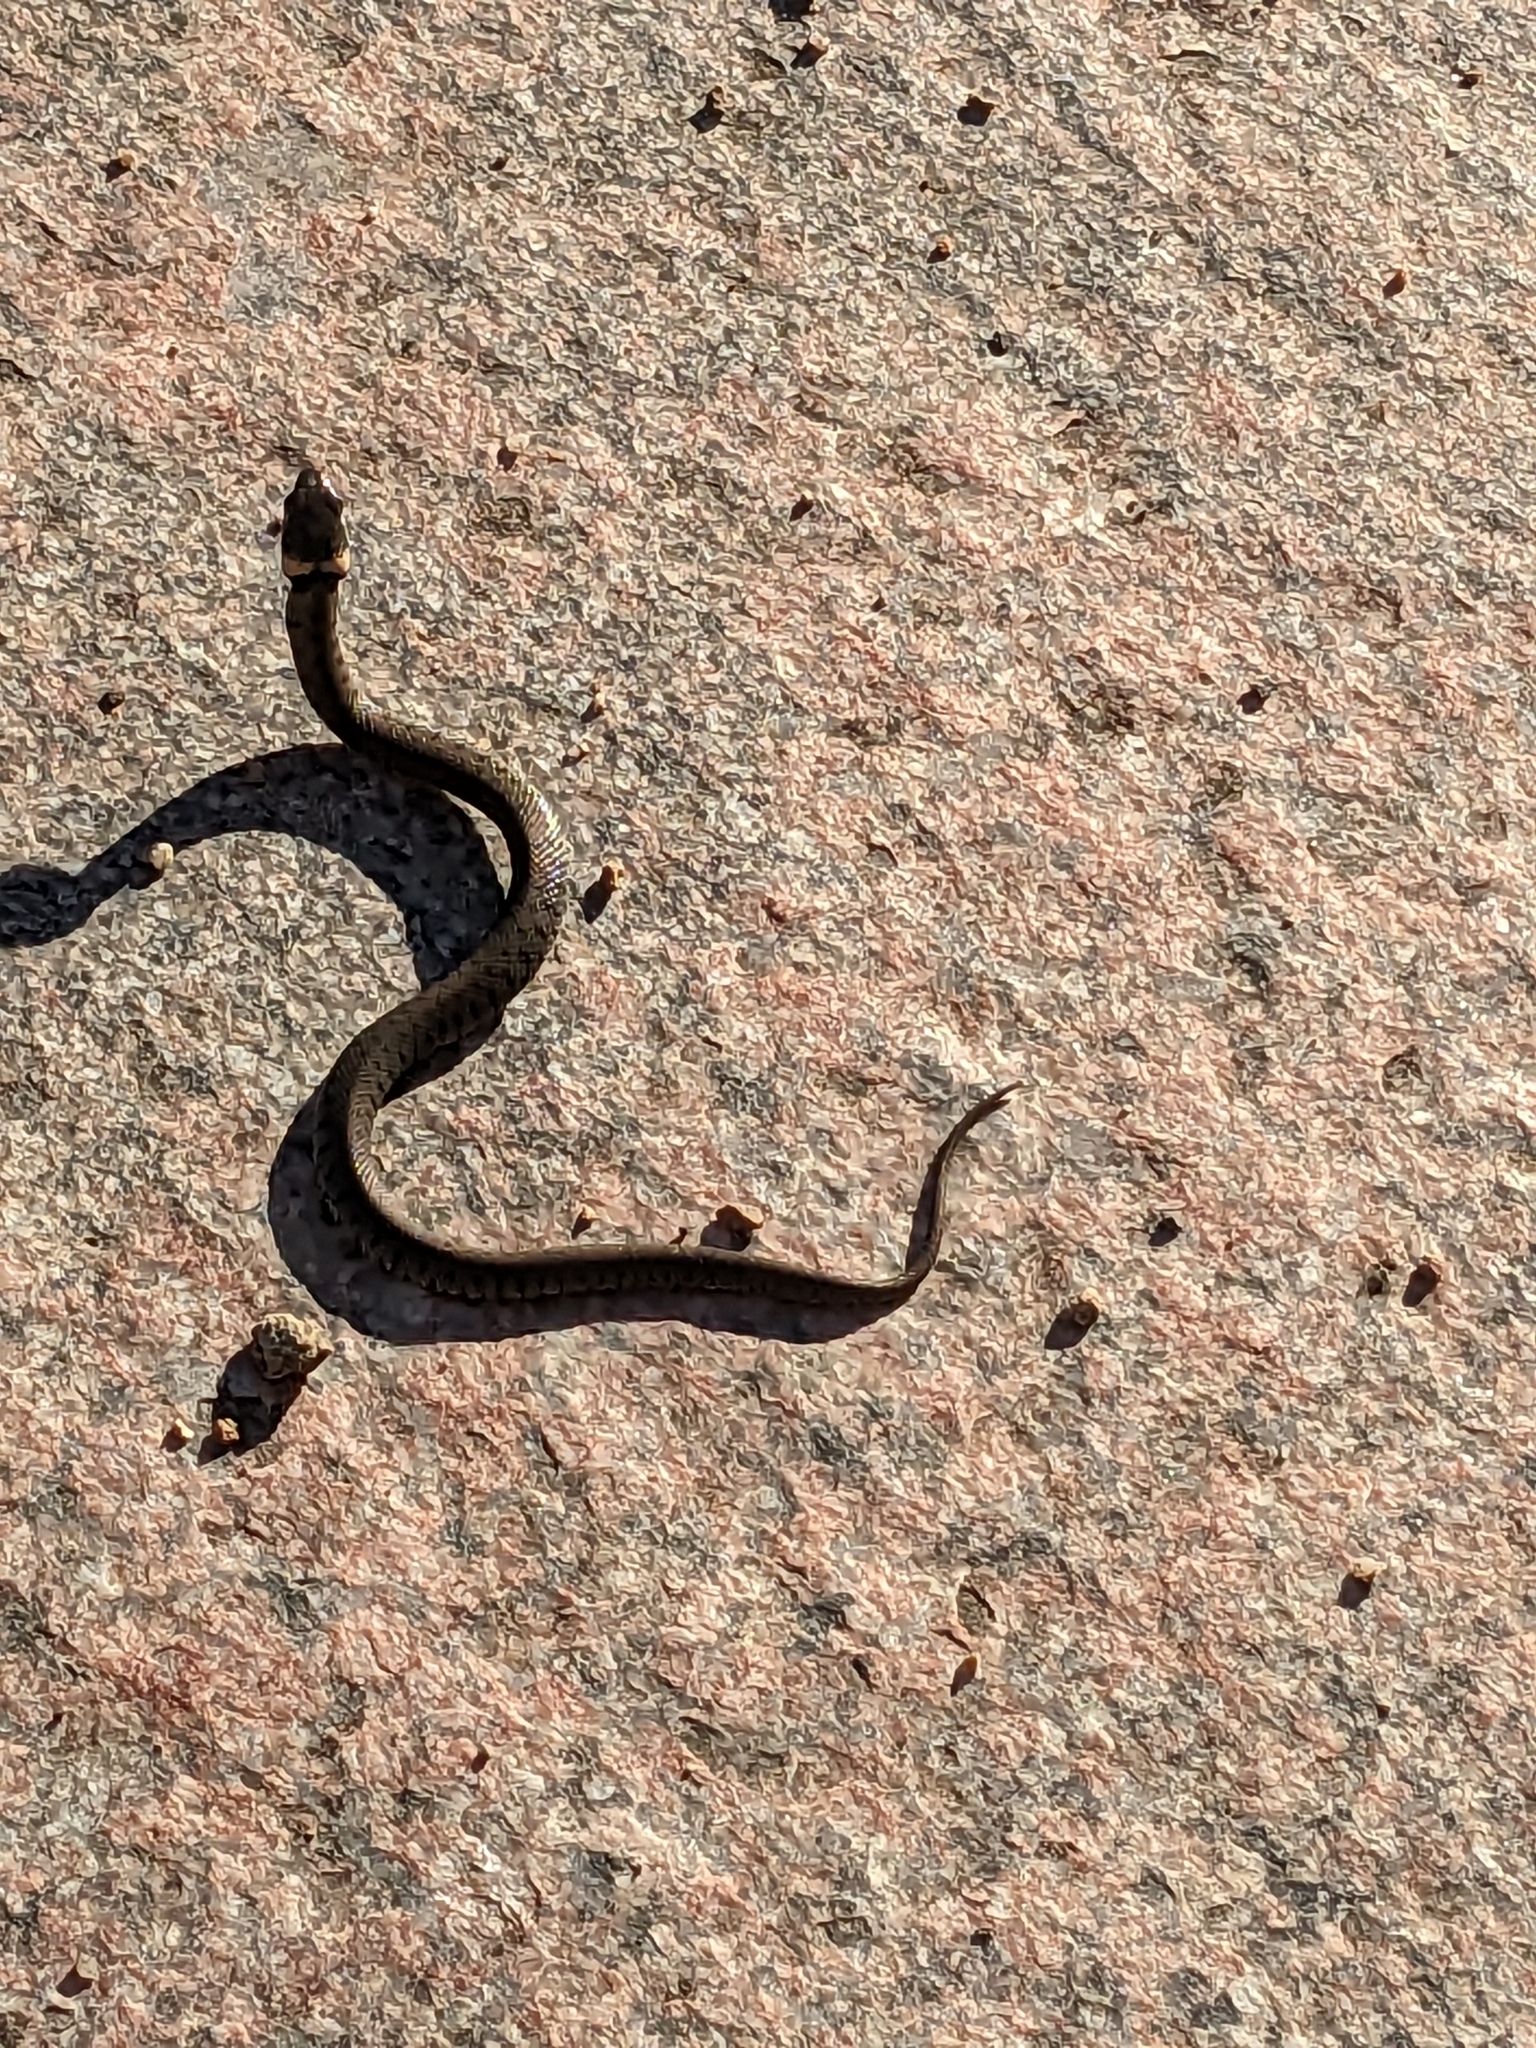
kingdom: Animalia
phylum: Chordata
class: Squamata
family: Colubridae
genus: Natrix
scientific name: Natrix helvetica
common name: Banded grass snake
